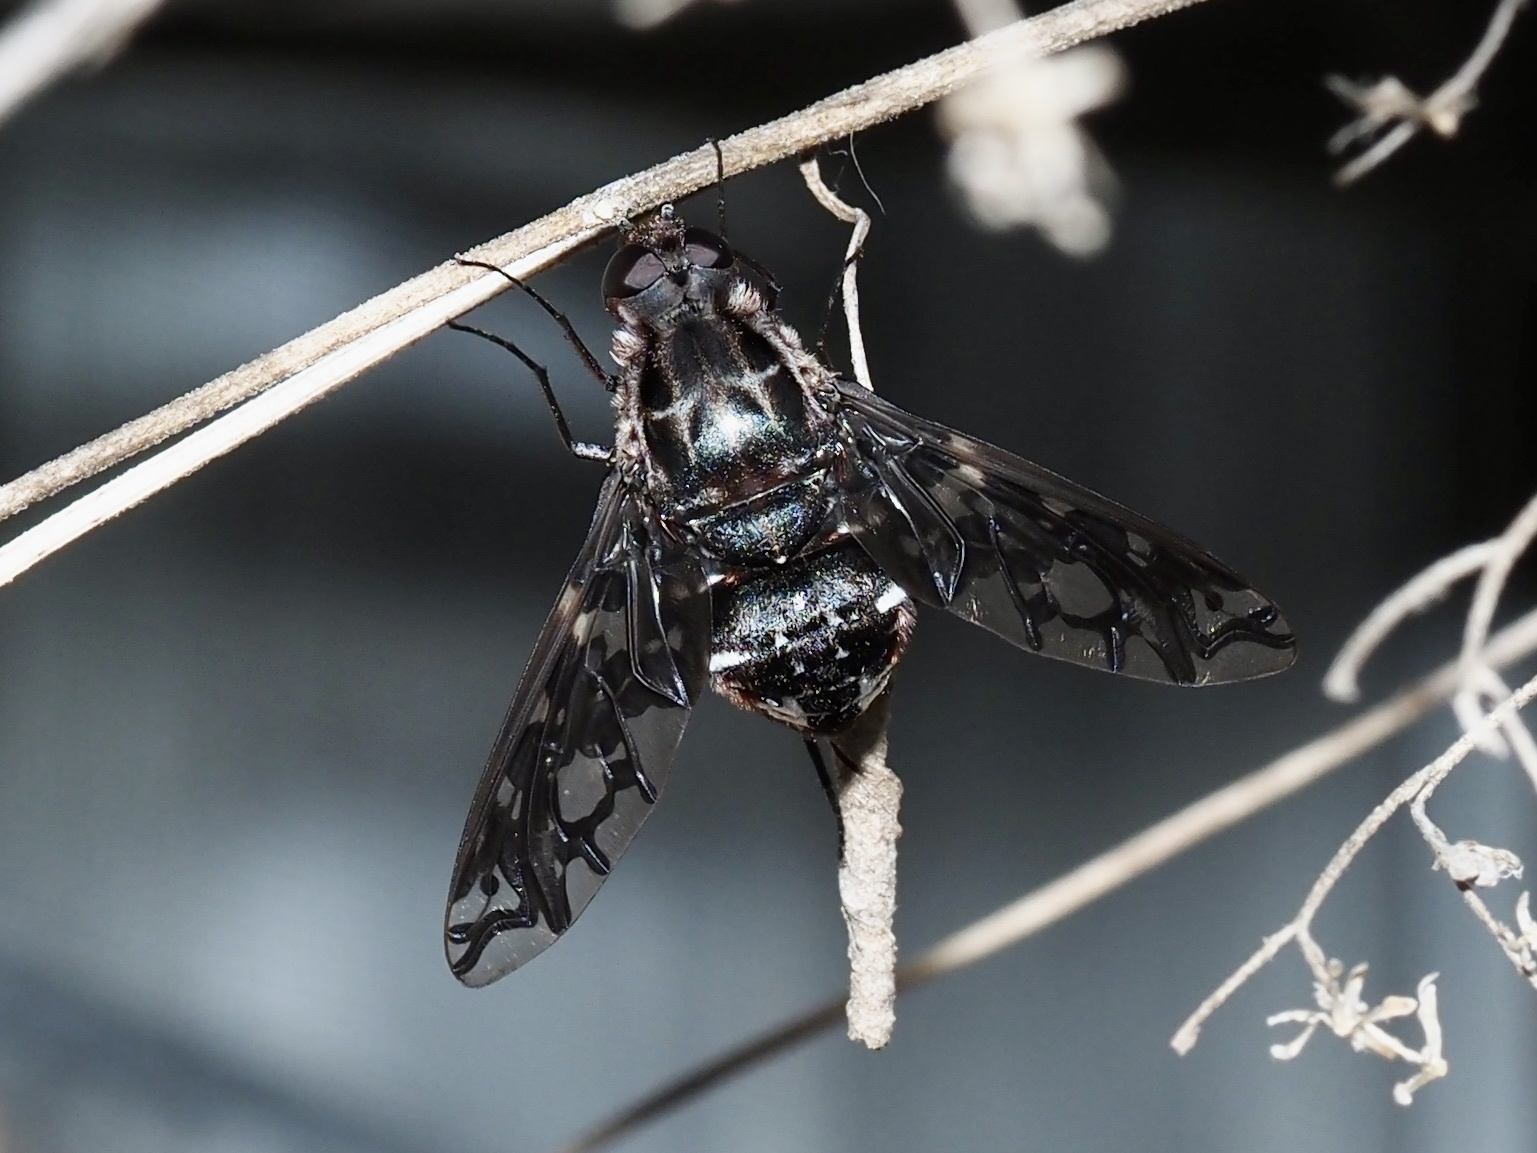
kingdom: Animalia
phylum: Arthropoda
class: Insecta
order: Diptera
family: Bombyliidae
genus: Xenox
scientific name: Xenox tigrinus
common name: Tiger bee fly
